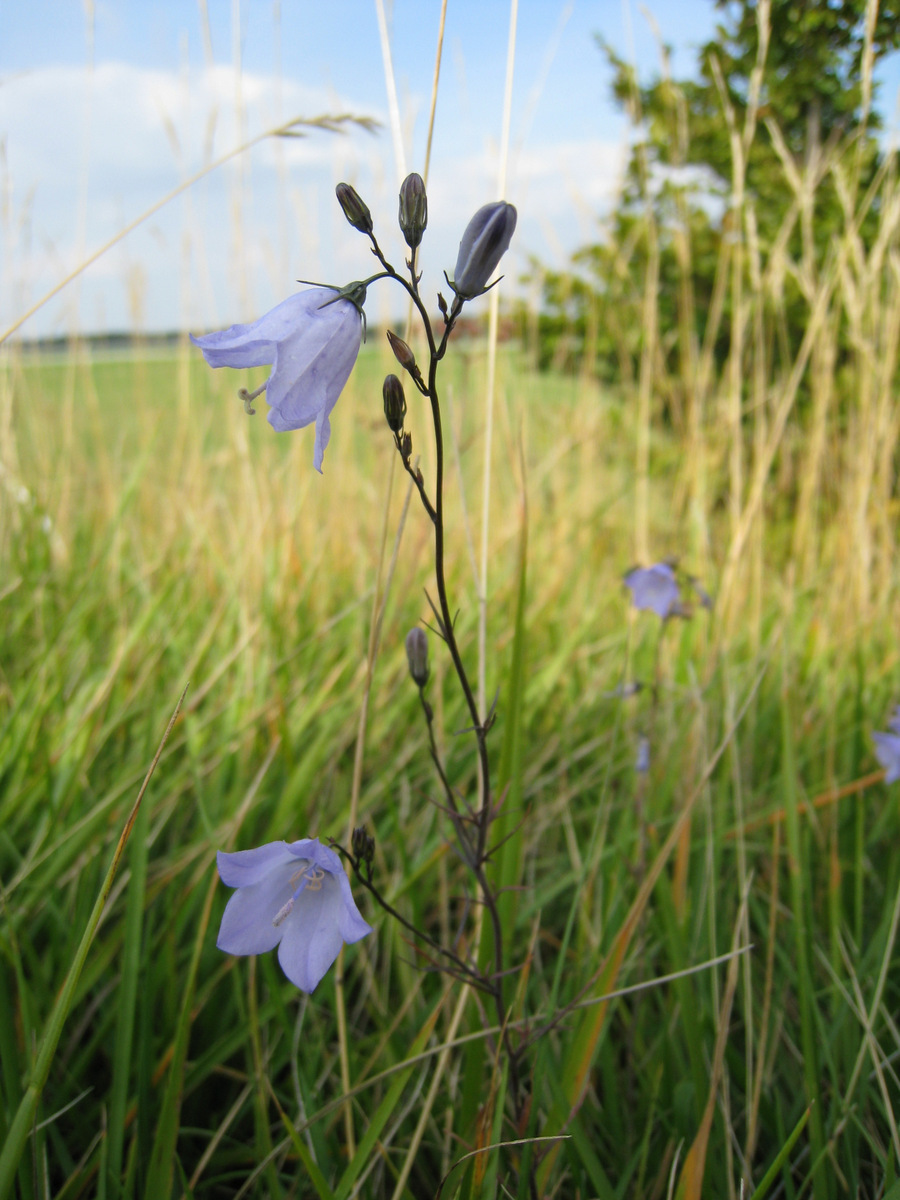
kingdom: Plantae
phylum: Tracheophyta
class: Magnoliopsida
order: Asterales
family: Campanulaceae
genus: Campanula
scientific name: Campanula rotundifolia
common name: Harebell
